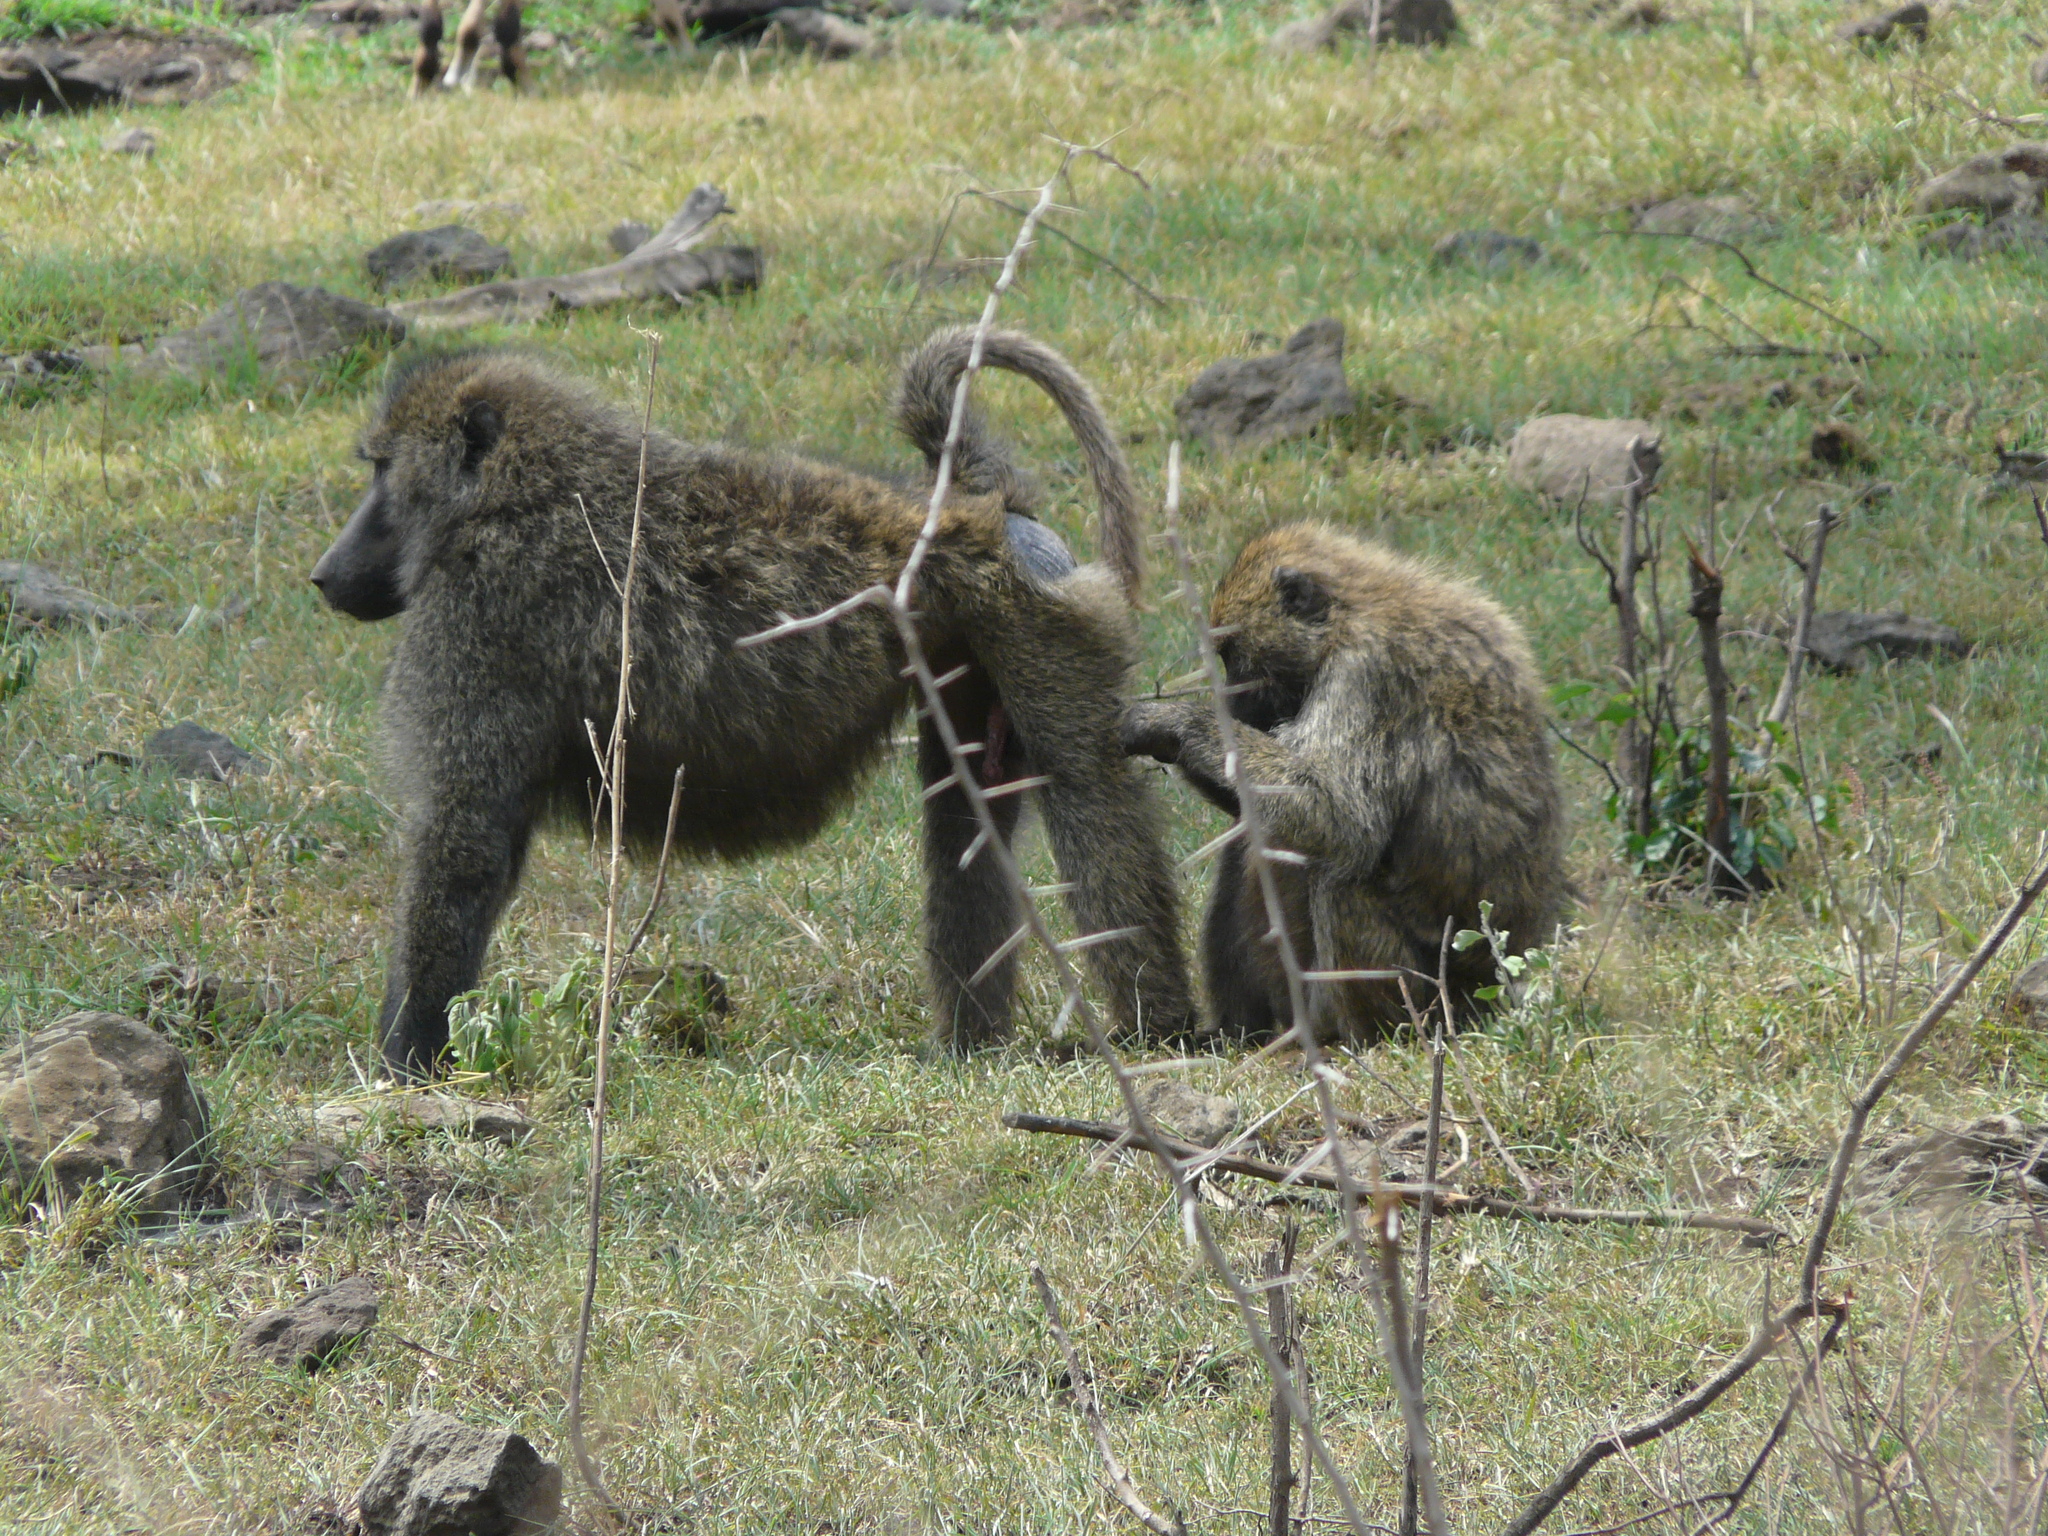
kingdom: Animalia
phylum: Chordata
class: Mammalia
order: Primates
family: Cercopithecidae
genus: Papio
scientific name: Papio anubis
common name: Olive baboon
